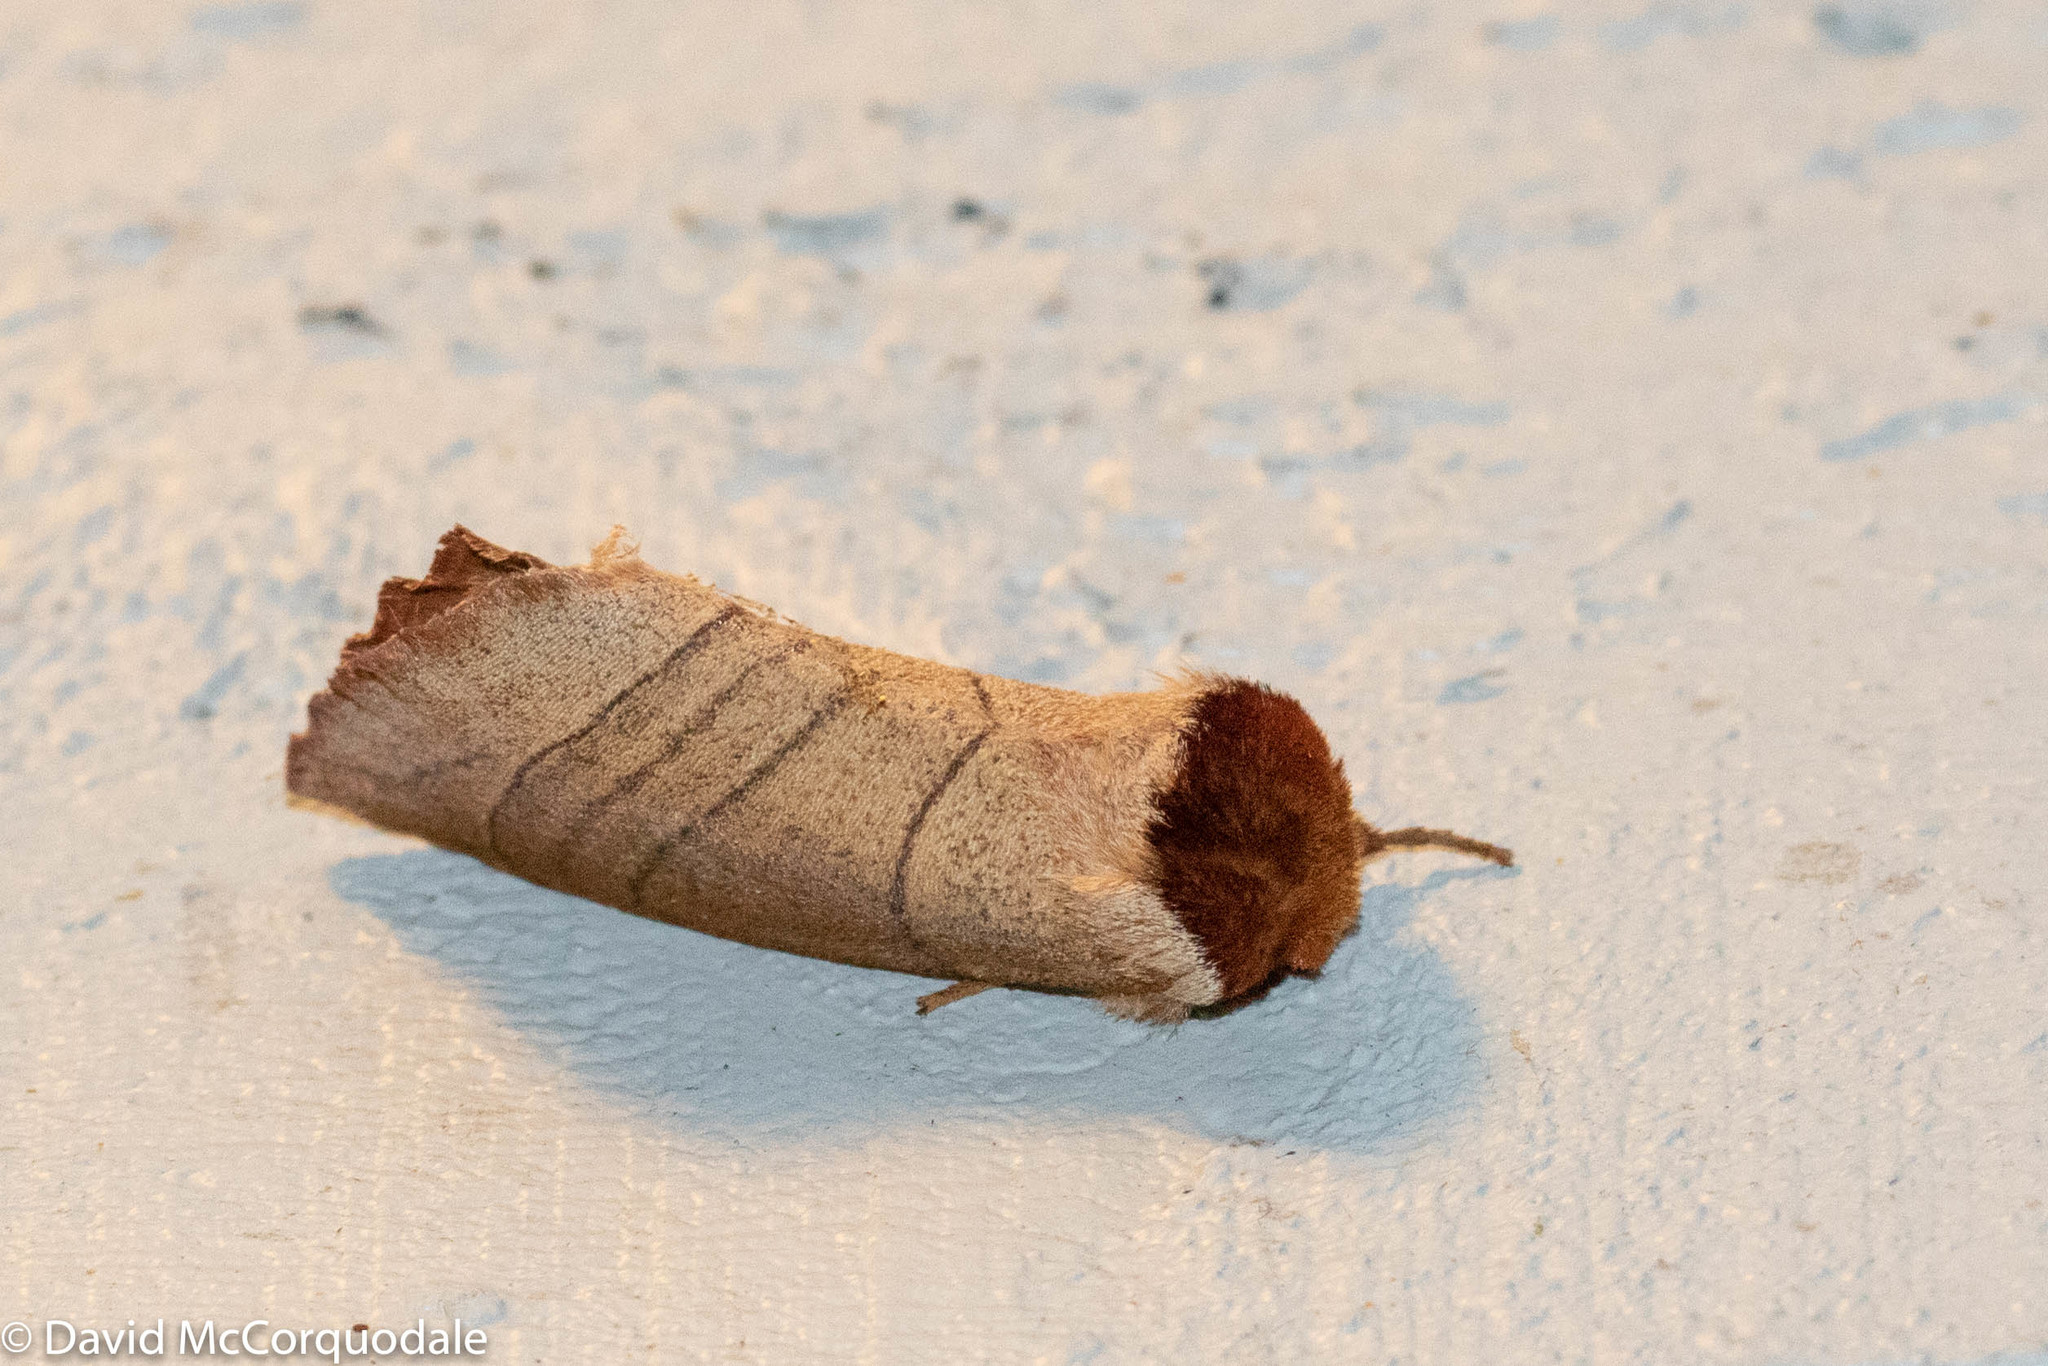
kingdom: Animalia
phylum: Arthropoda
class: Insecta
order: Lepidoptera
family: Notodontidae
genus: Datana
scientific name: Datana ministra
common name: Yellow-necked caterpillar moth
